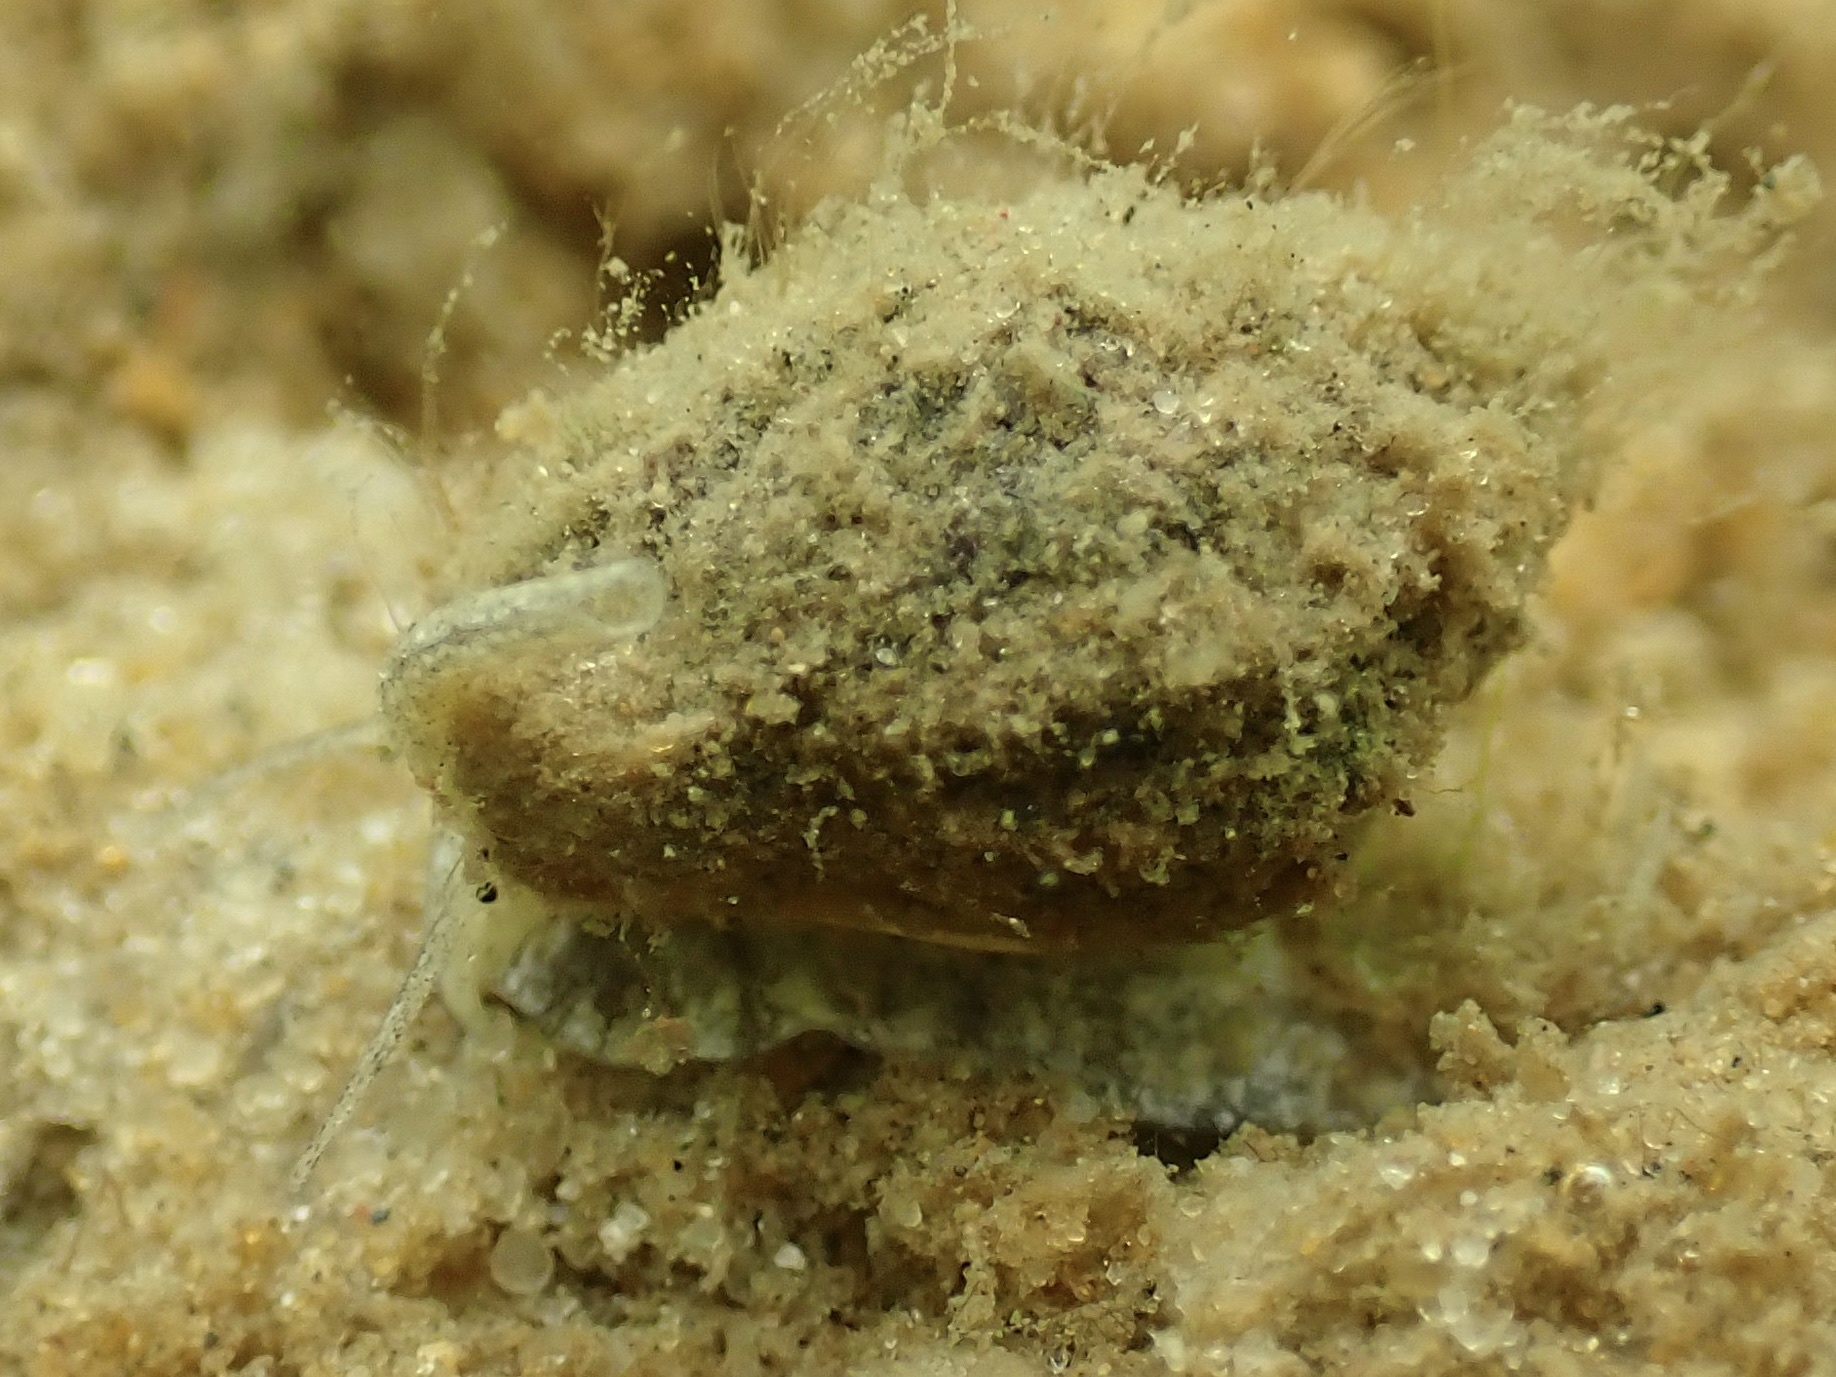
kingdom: Animalia
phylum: Mollusca
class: Gastropoda
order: Neogastropoda
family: Nassariidae
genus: Ilyanassa
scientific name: Ilyanassa obsoleta
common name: Eastern mudsnail
